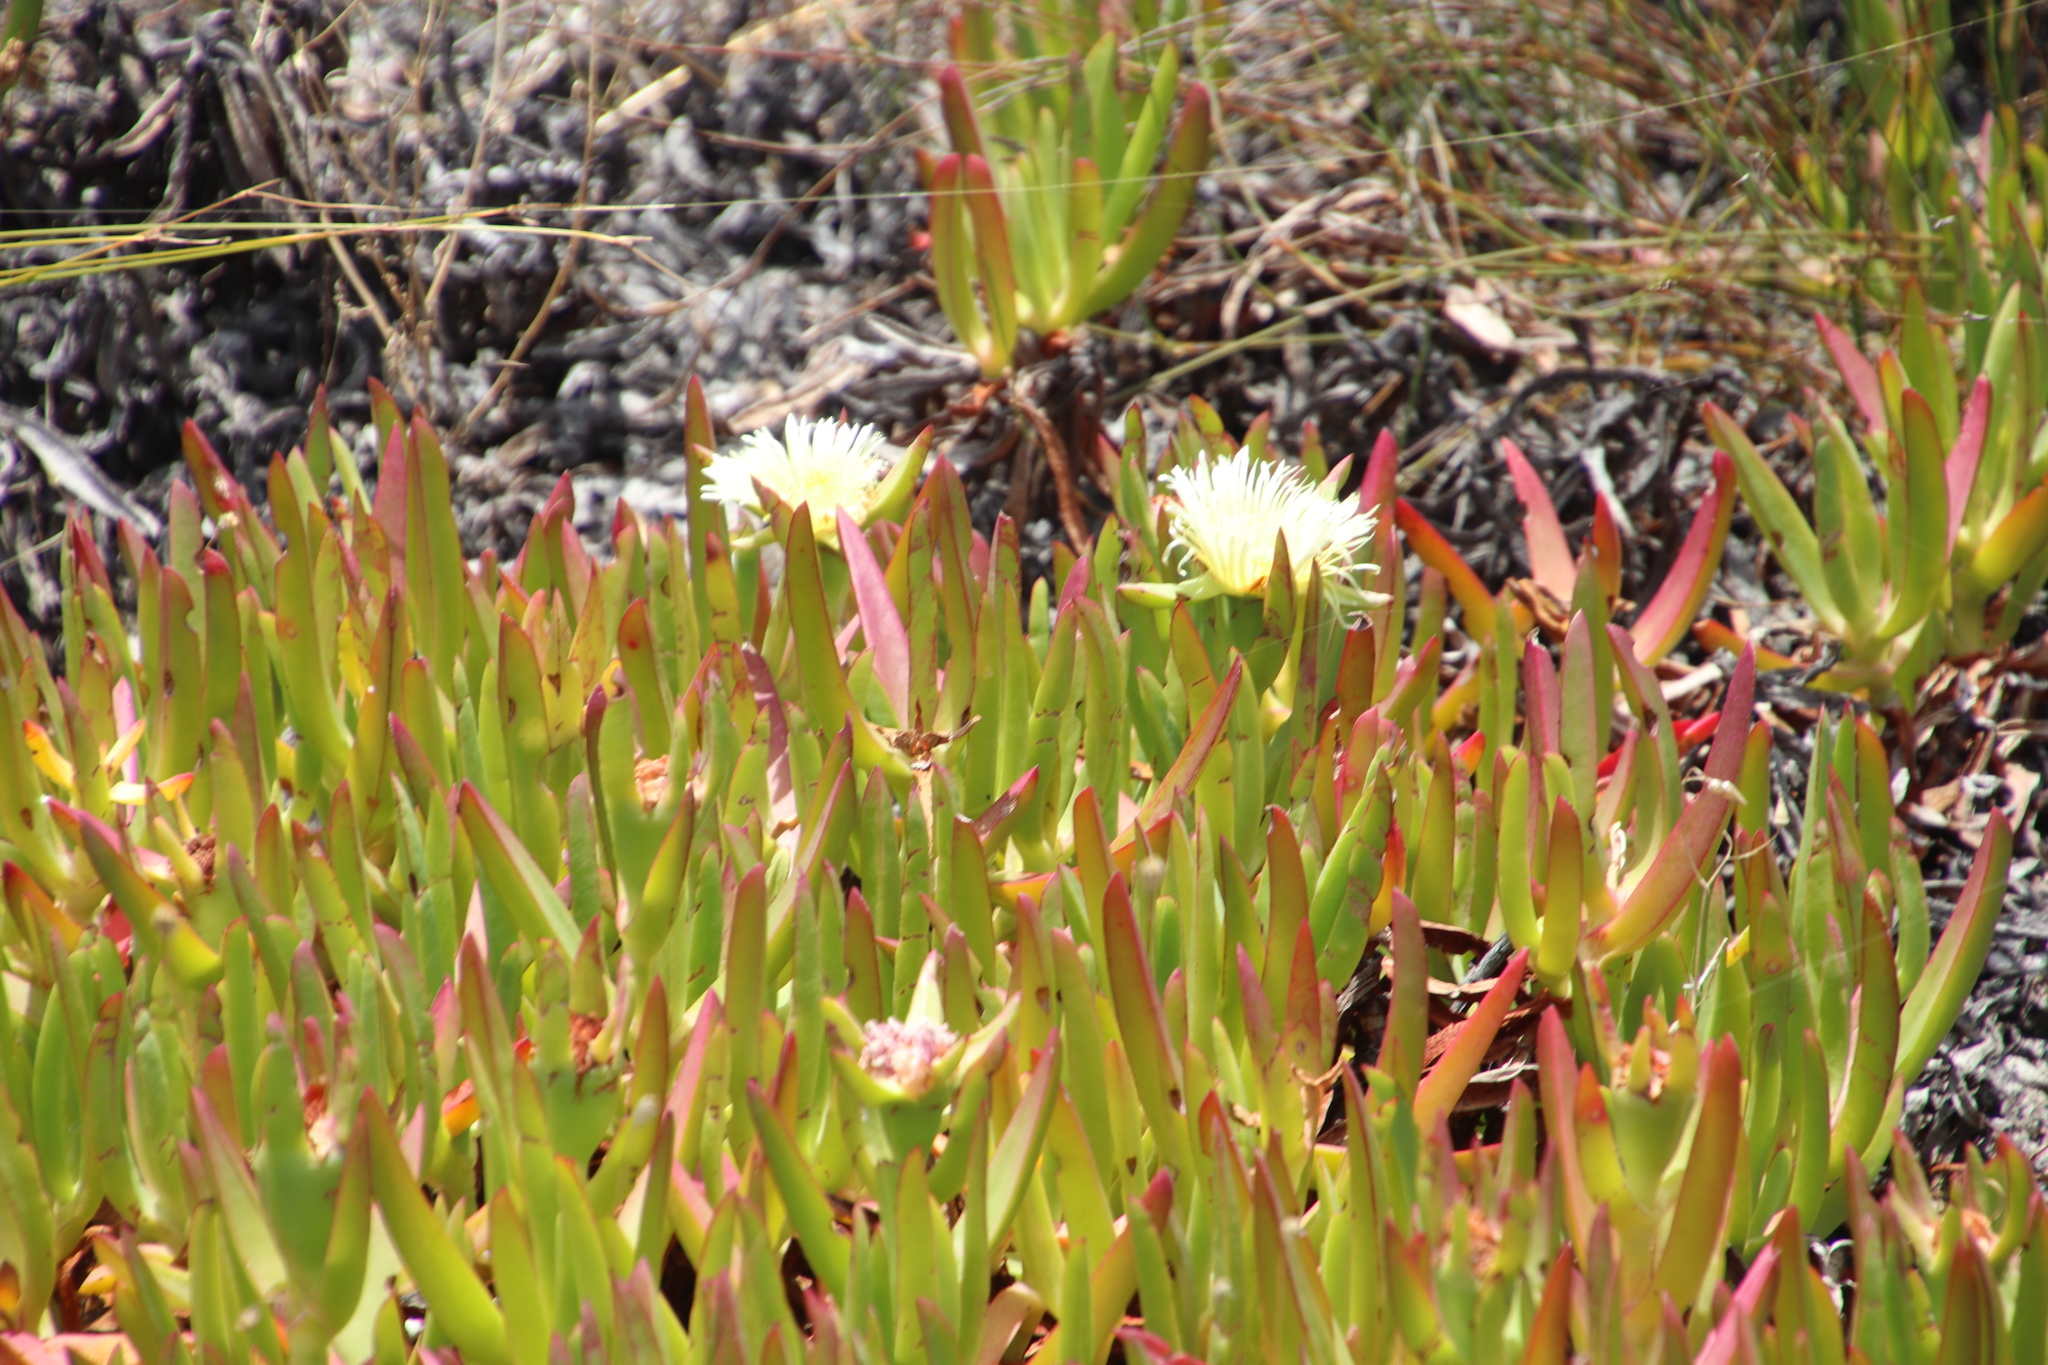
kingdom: Plantae
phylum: Tracheophyta
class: Magnoliopsida
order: Caryophyllales
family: Aizoaceae
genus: Carpobrotus
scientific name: Carpobrotus edulis
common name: Hottentot-fig
